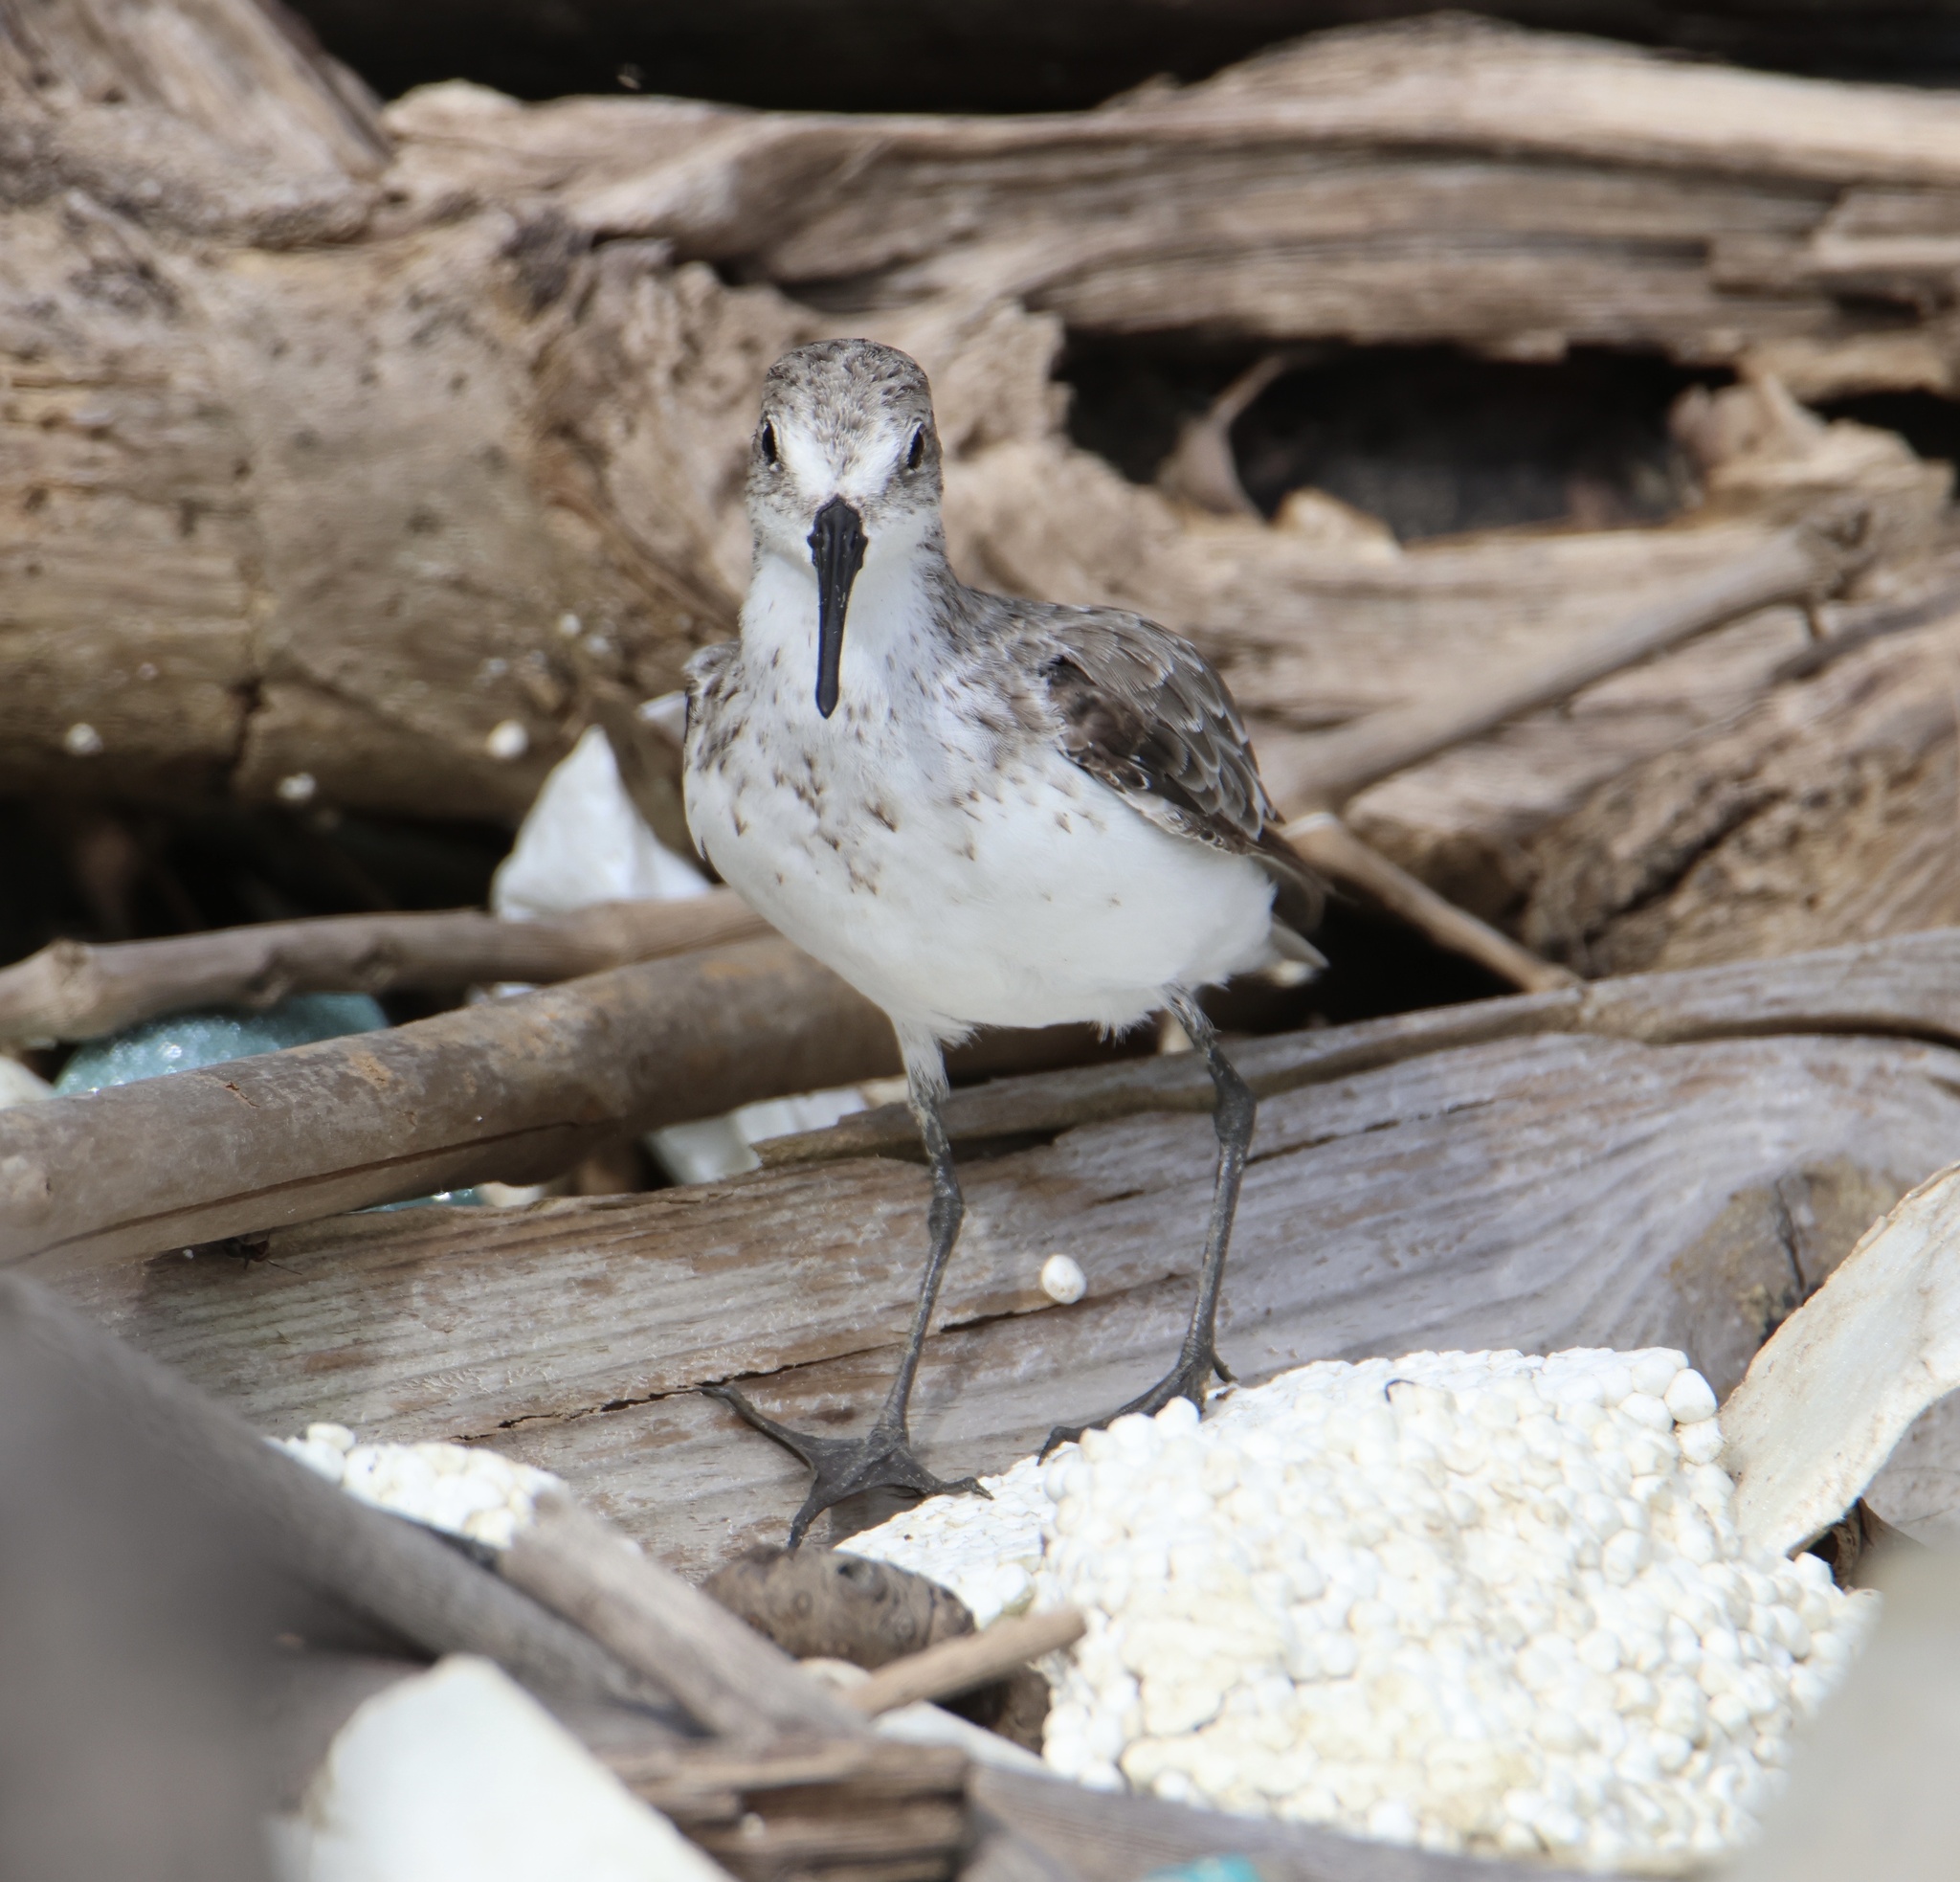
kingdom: Animalia
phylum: Chordata
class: Aves
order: Charadriiformes
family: Scolopacidae
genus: Calidris
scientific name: Calidris mauri
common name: Western sandpiper
